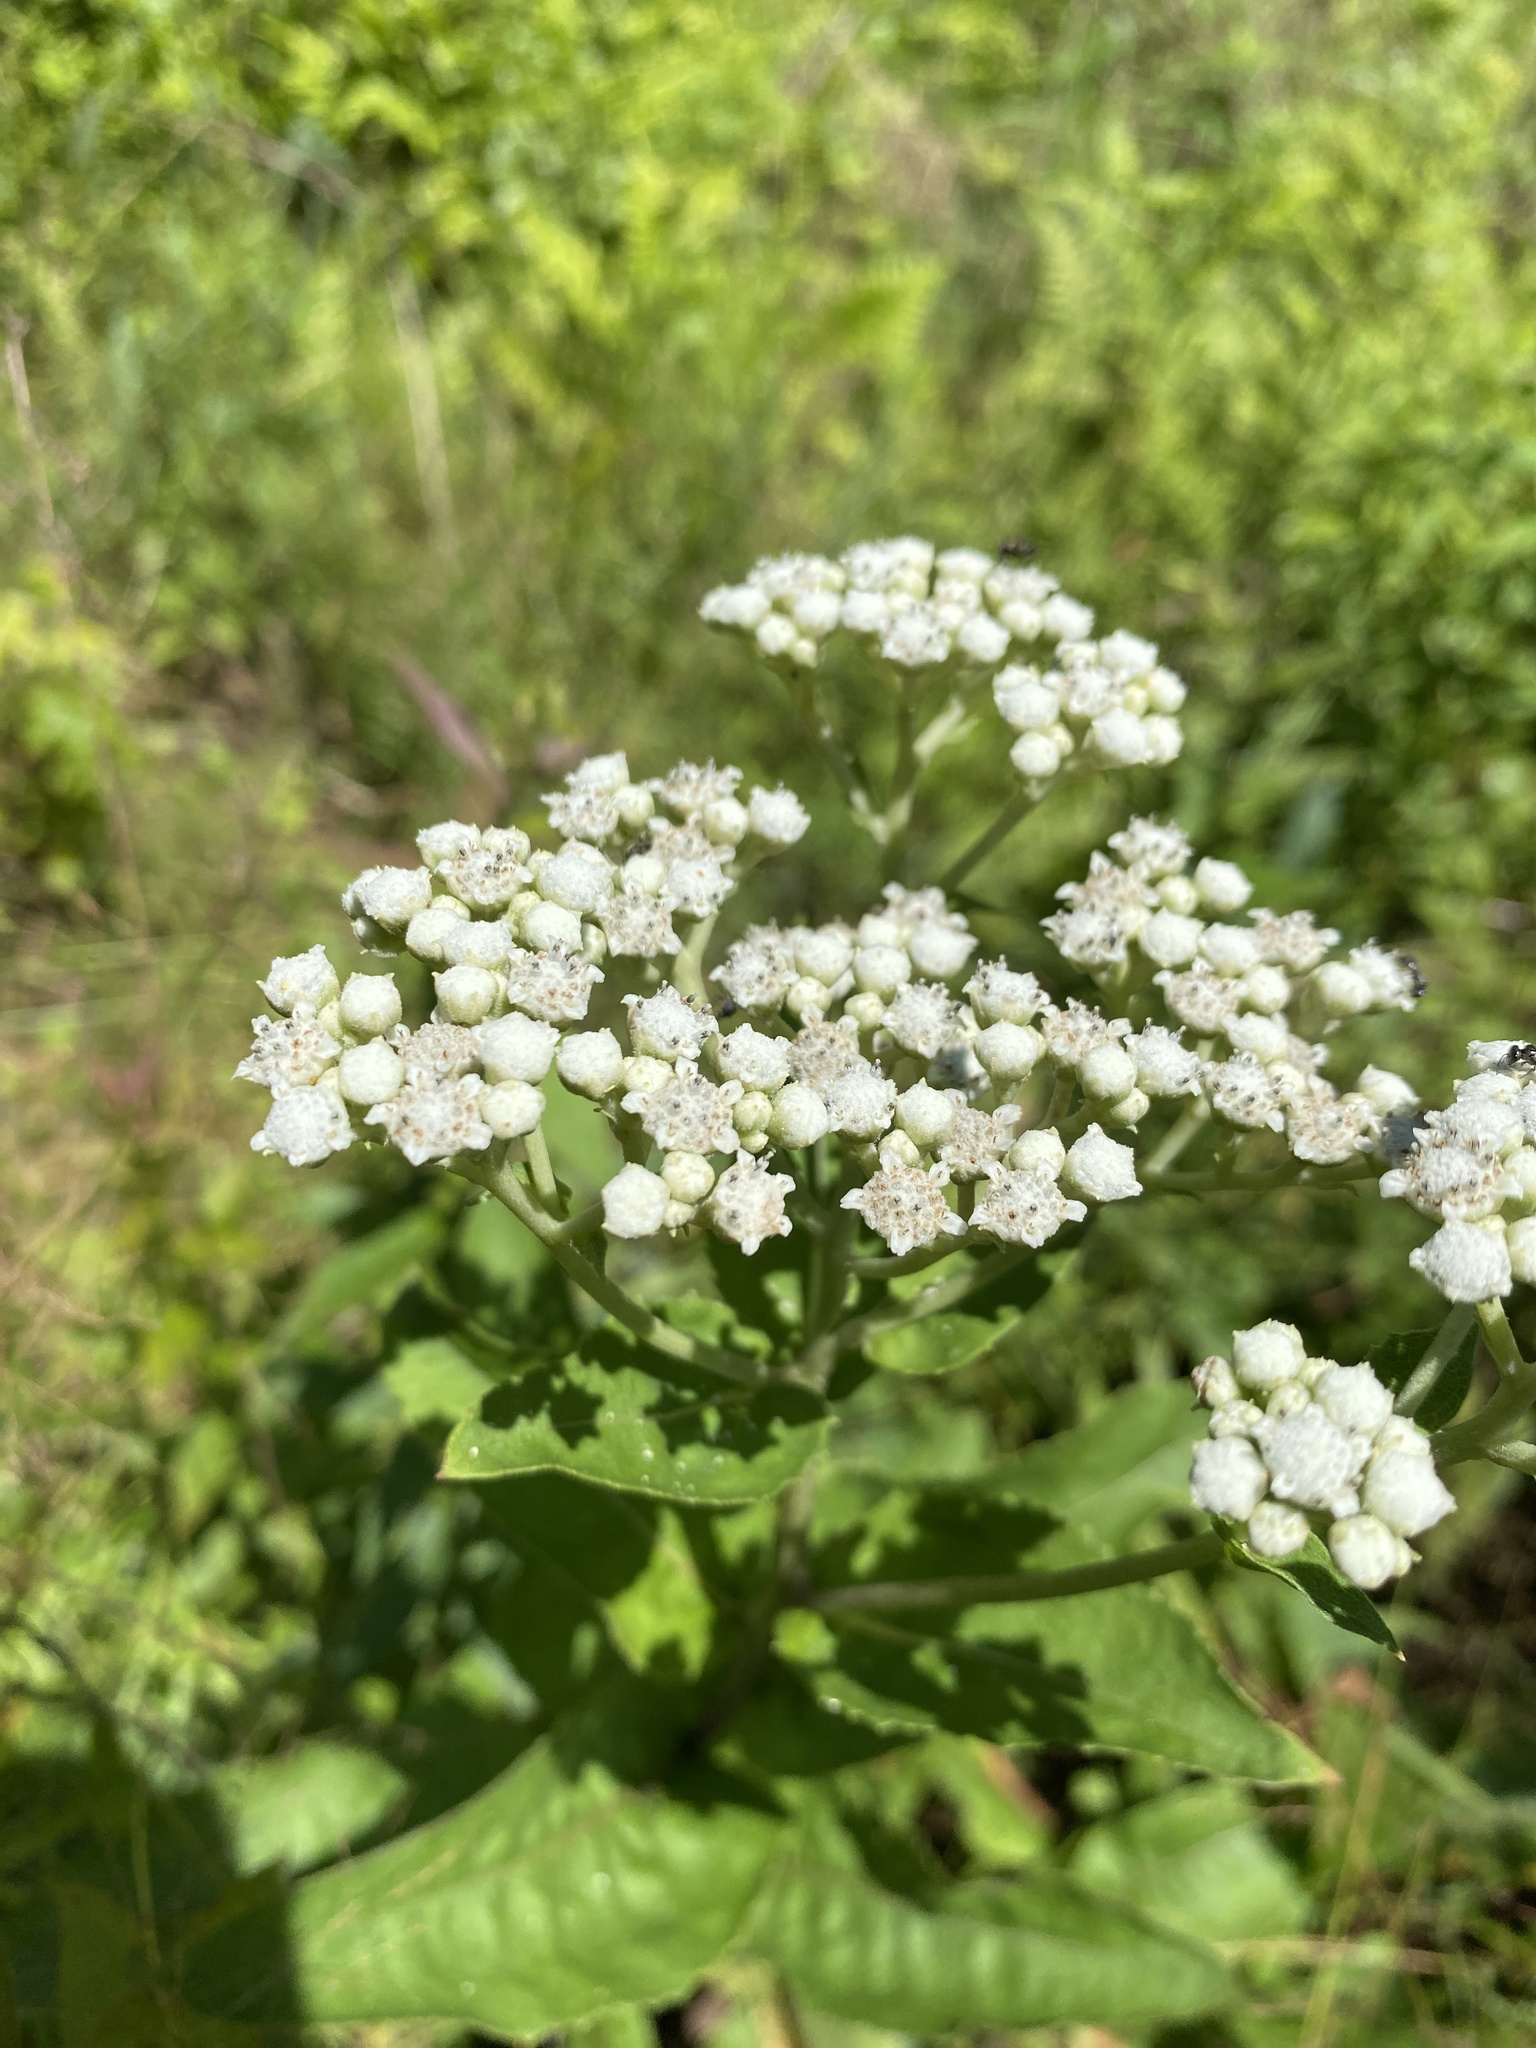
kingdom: Plantae
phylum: Tracheophyta
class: Magnoliopsida
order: Asterales
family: Asteraceae
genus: Parthenium
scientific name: Parthenium integrifolium
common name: American feverfew
